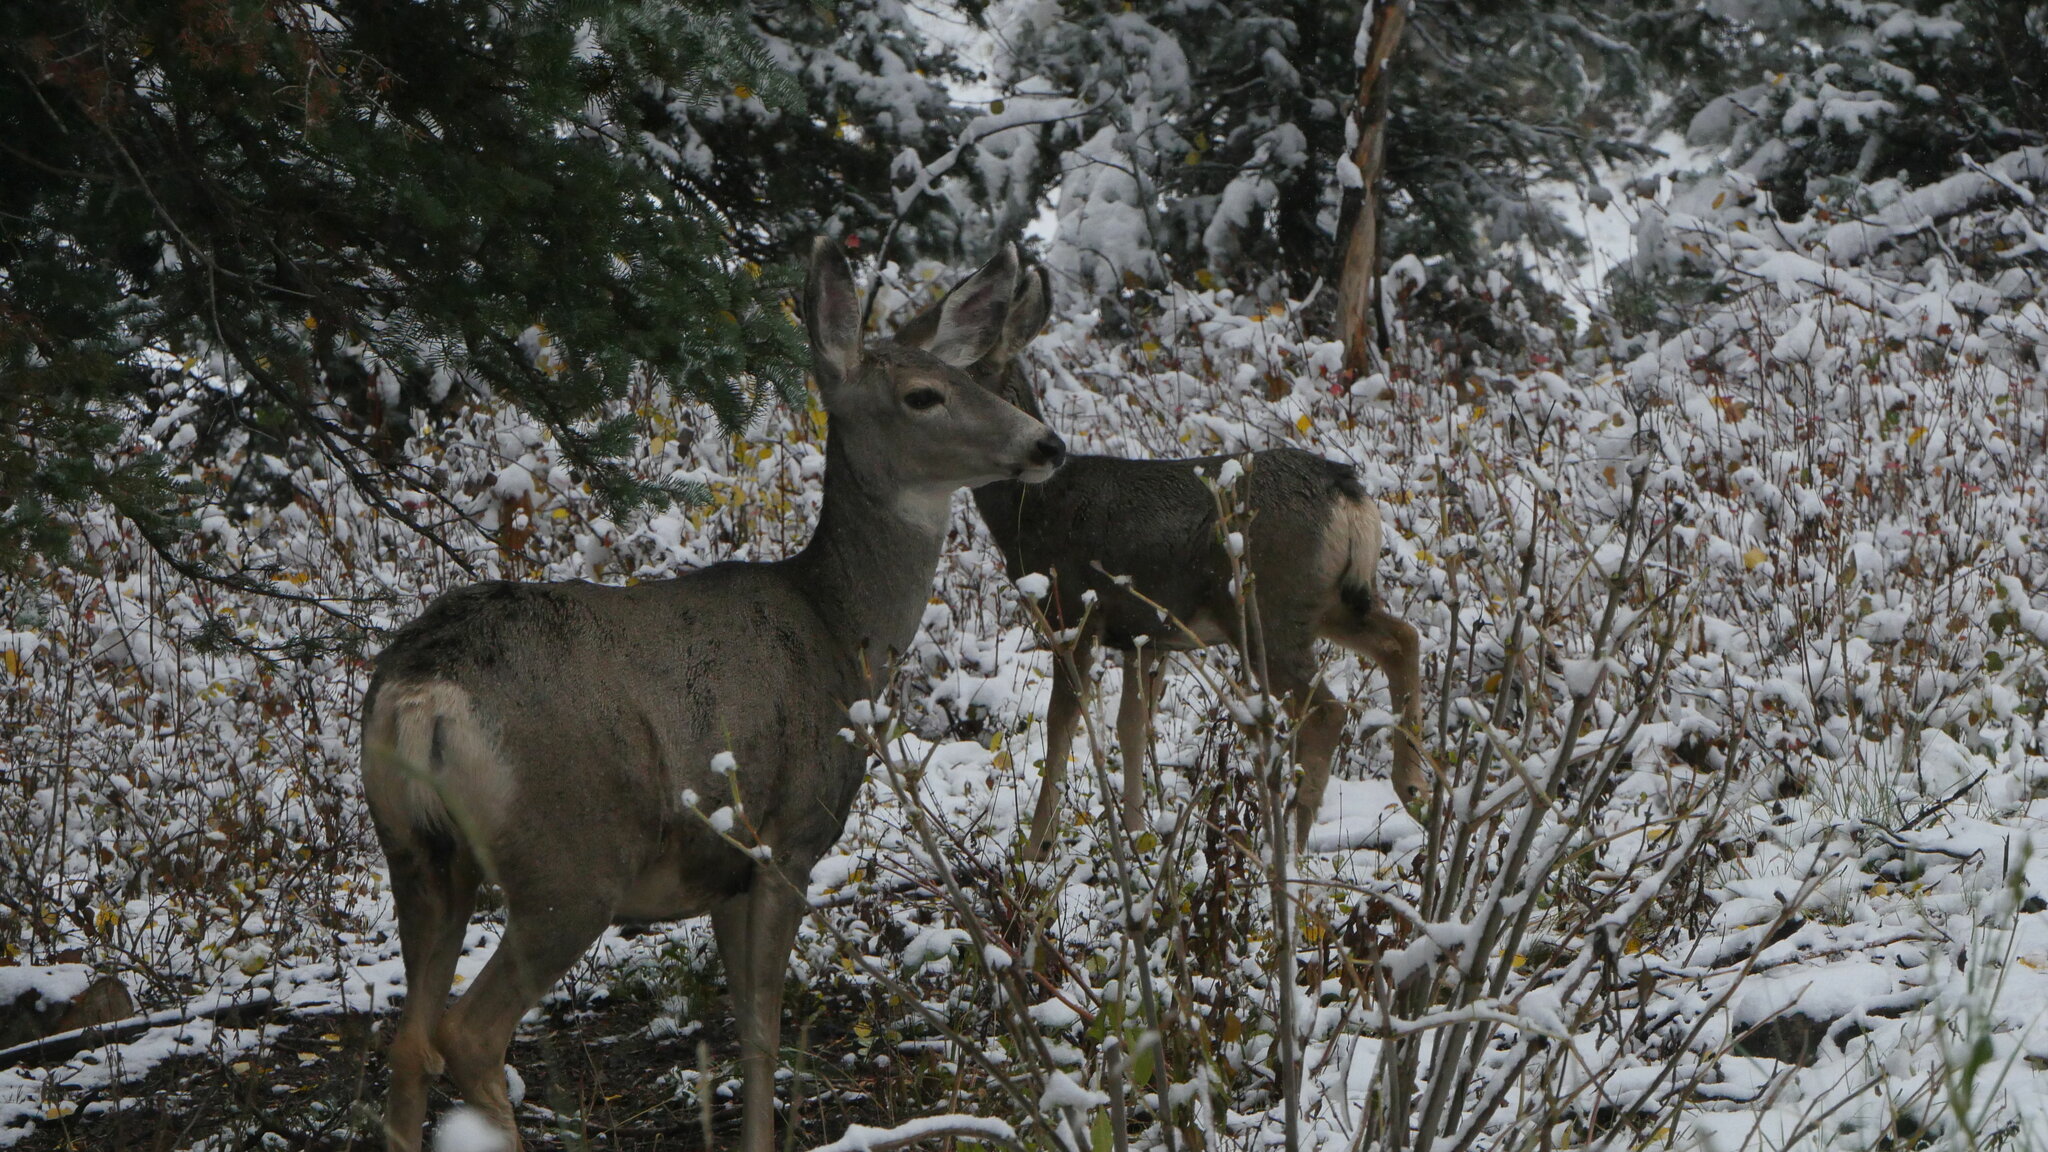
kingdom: Animalia
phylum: Chordata
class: Mammalia
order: Artiodactyla
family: Cervidae
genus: Odocoileus
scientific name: Odocoileus hemionus
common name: Mule deer
